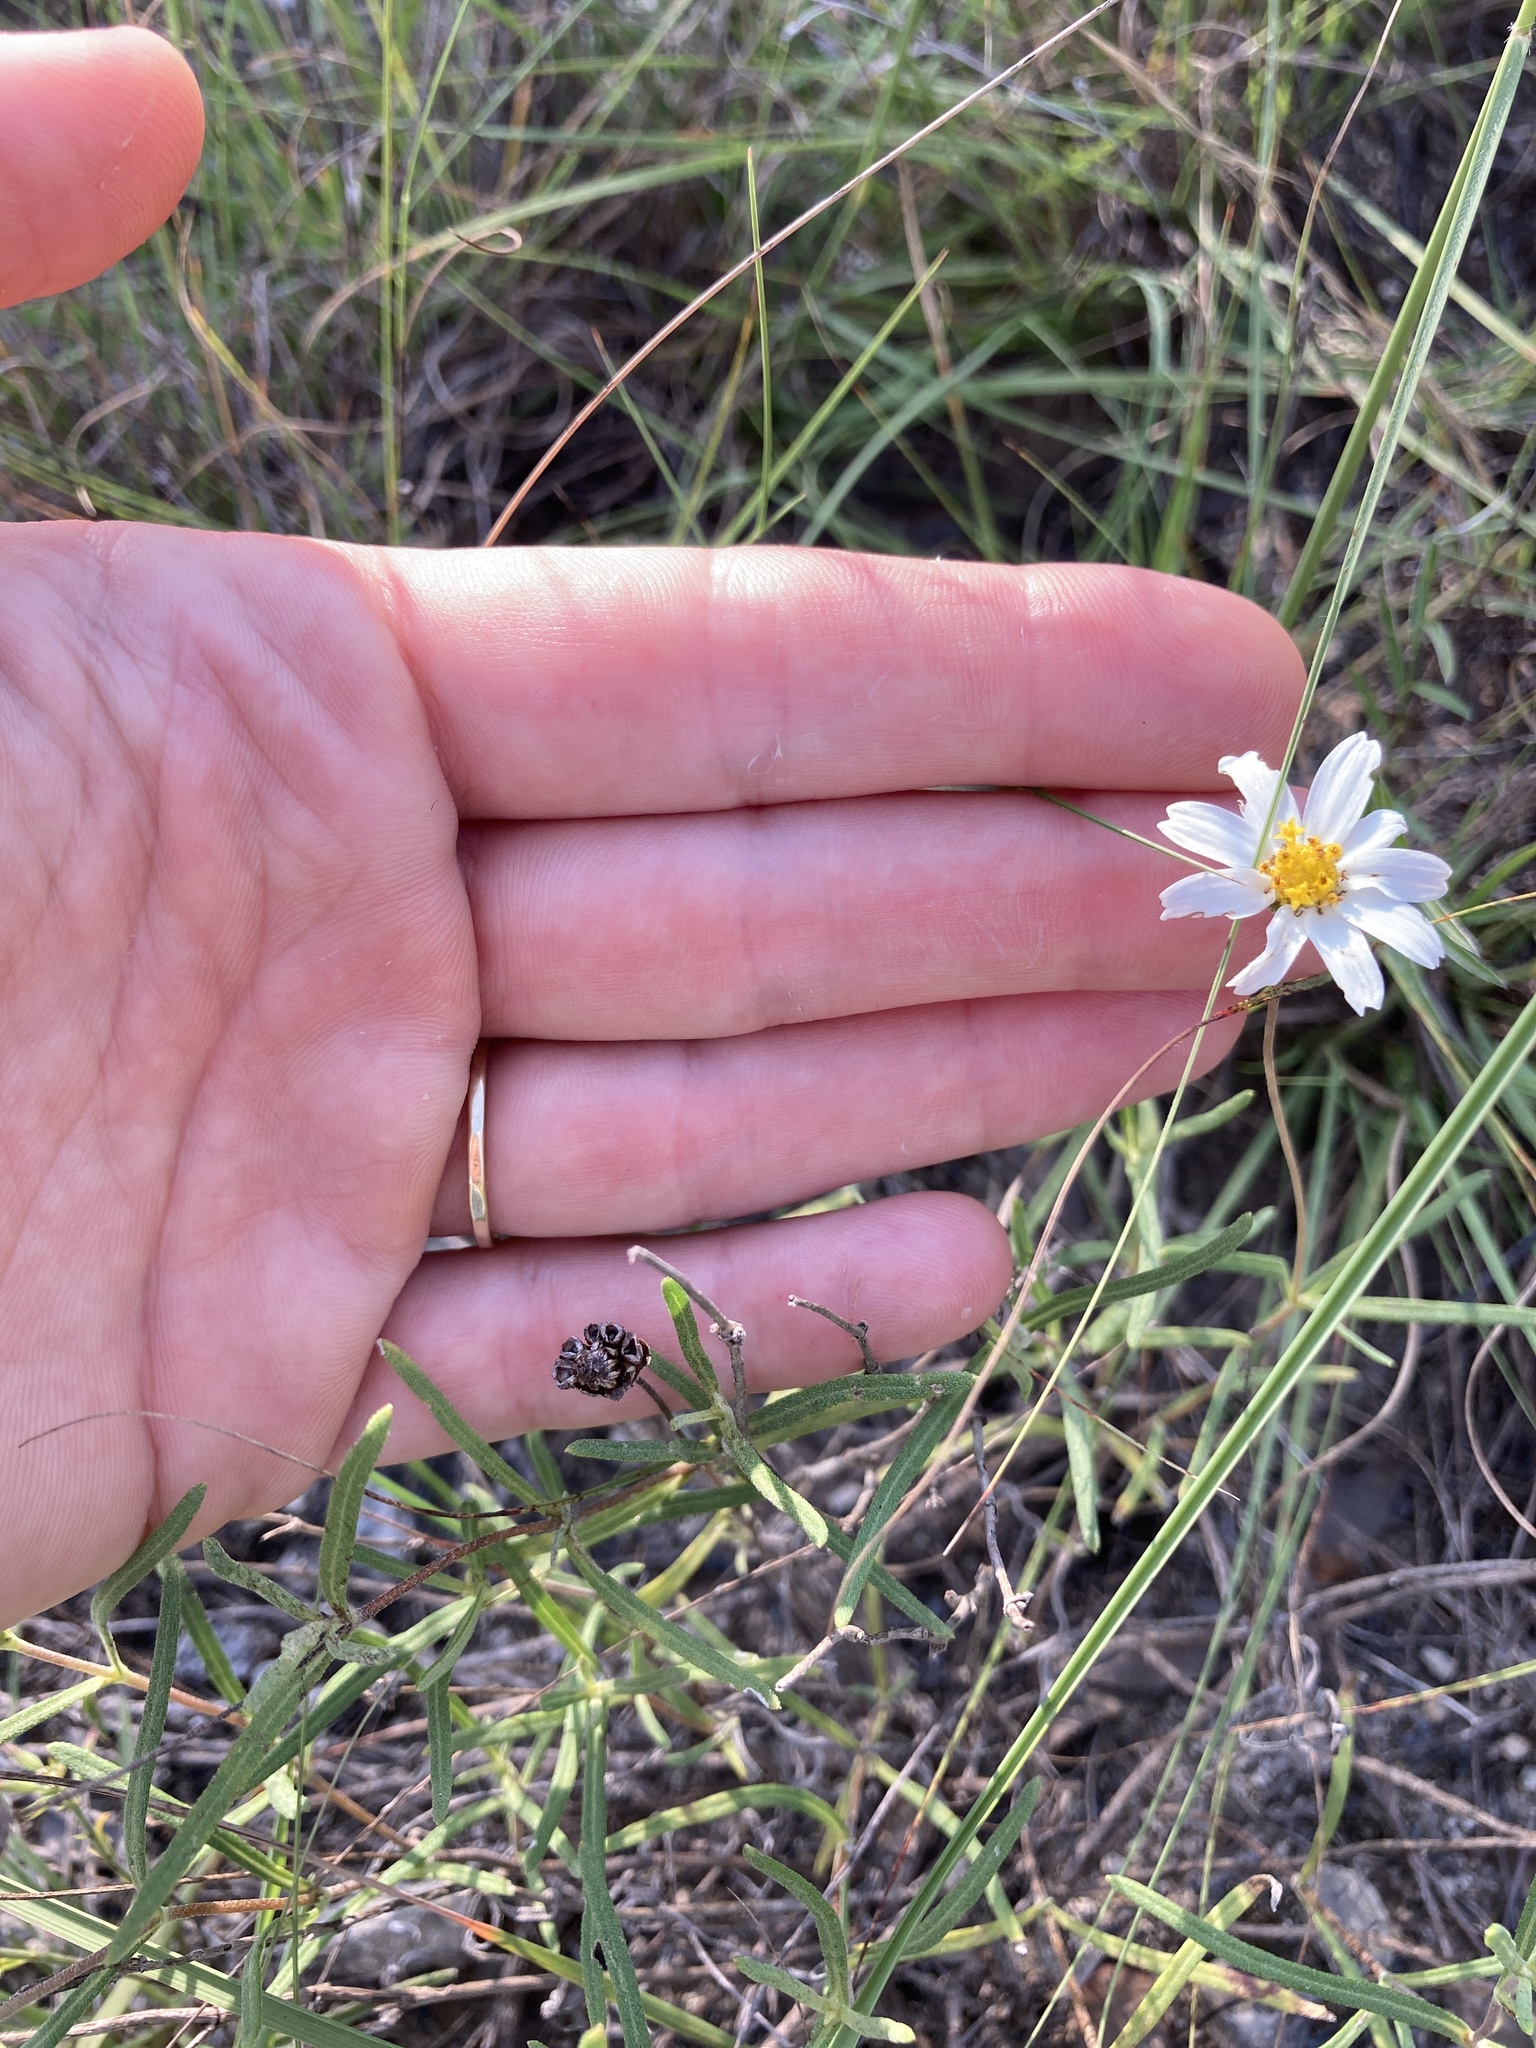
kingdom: Plantae
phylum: Tracheophyta
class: Magnoliopsida
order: Asterales
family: Asteraceae
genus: Melampodium
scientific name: Melampodium leucanthum
